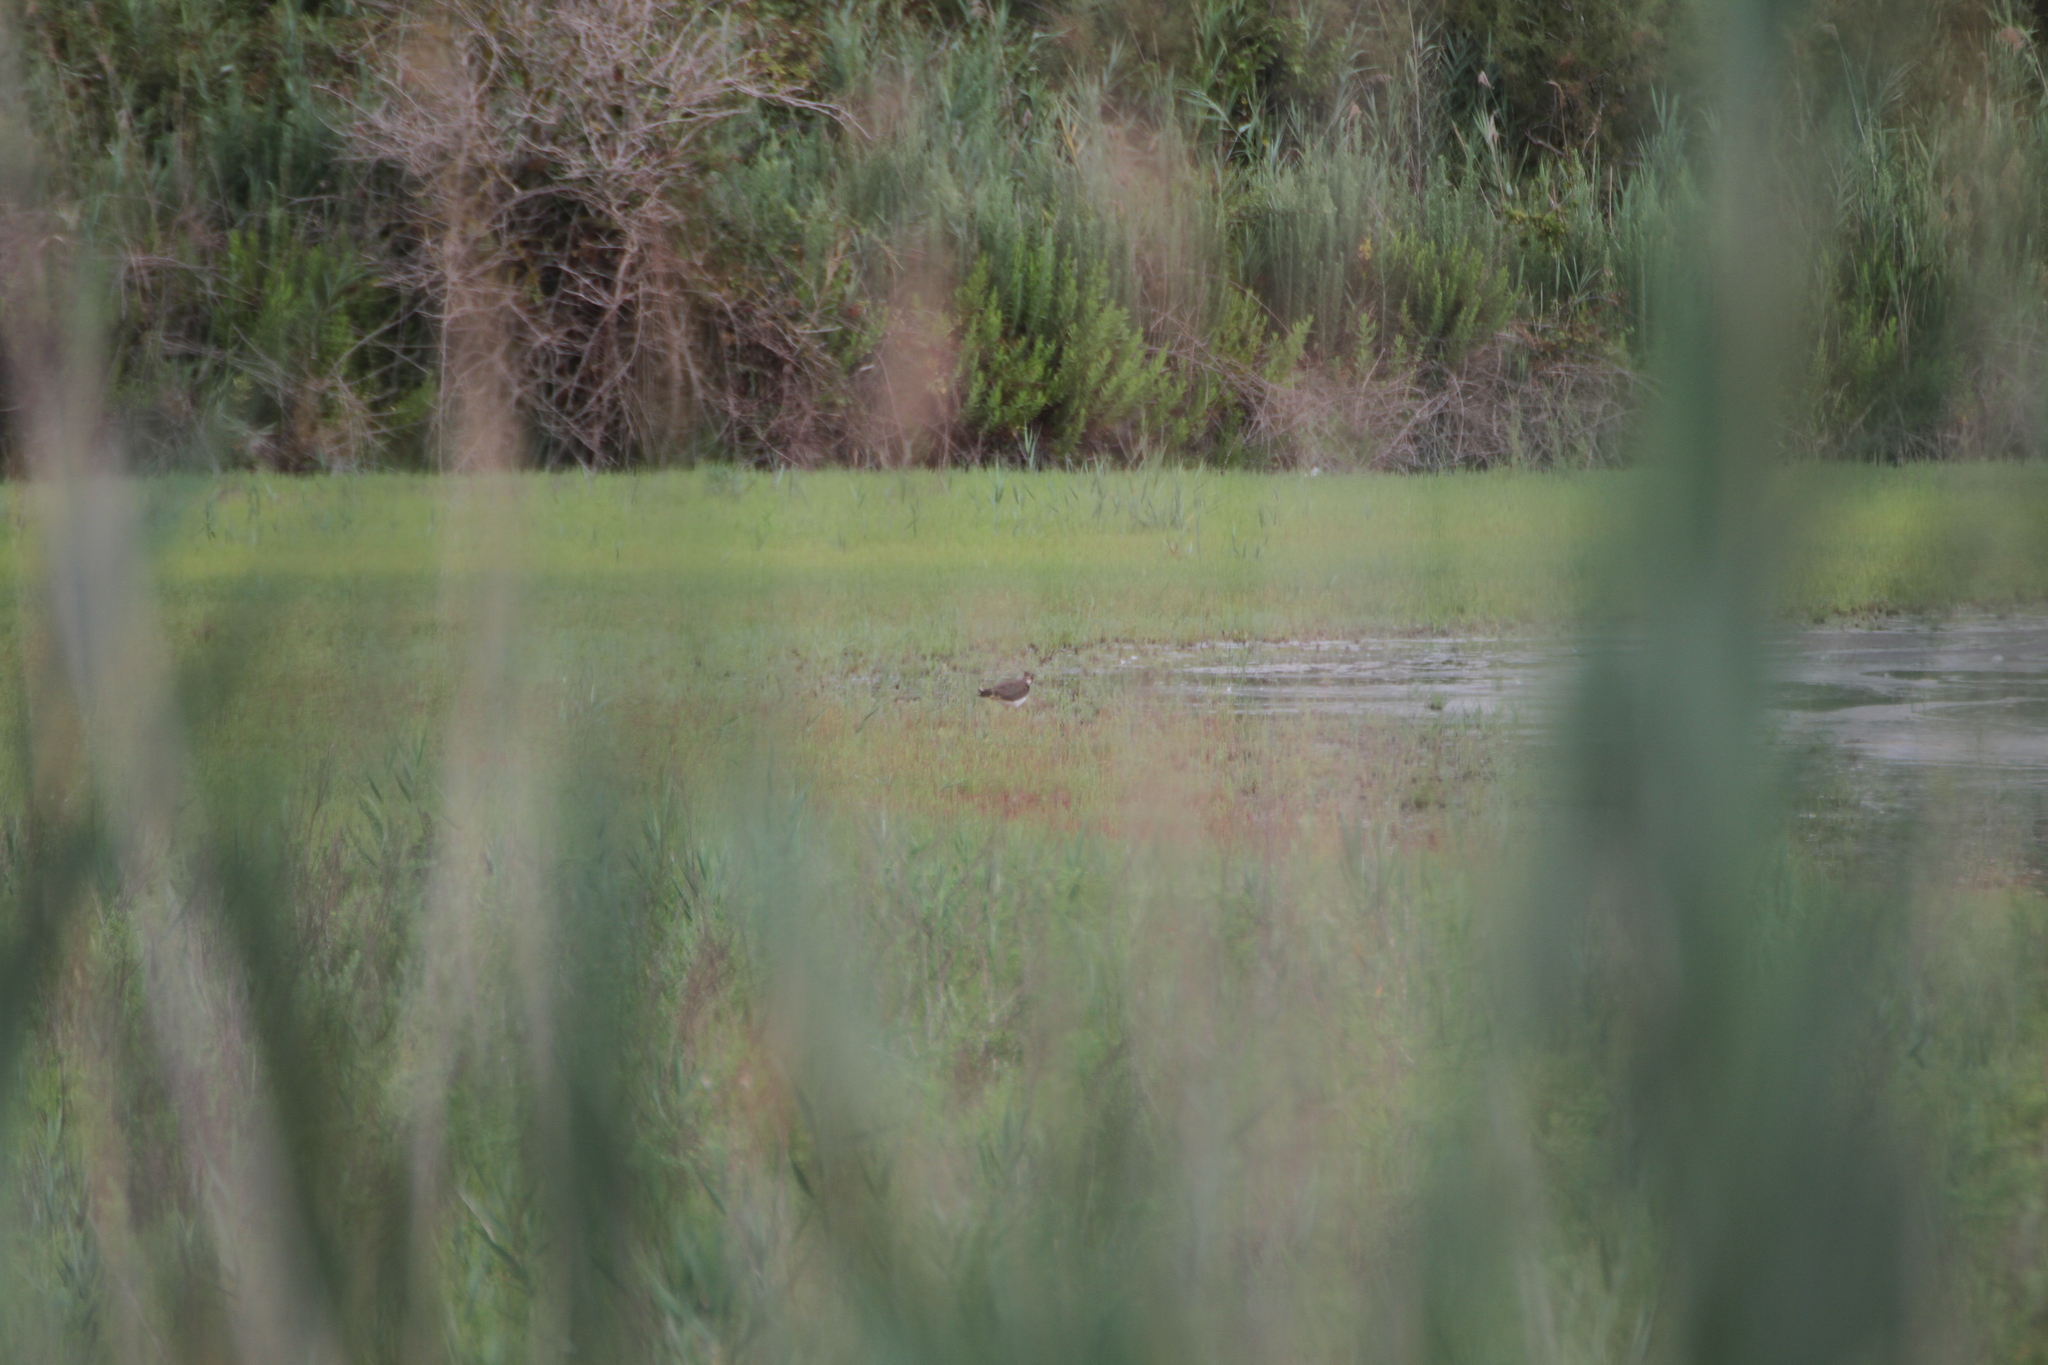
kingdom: Animalia
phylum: Chordata
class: Aves
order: Charadriiformes
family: Charadriidae
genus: Vanellus
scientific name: Vanellus vanellus
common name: Northern lapwing
